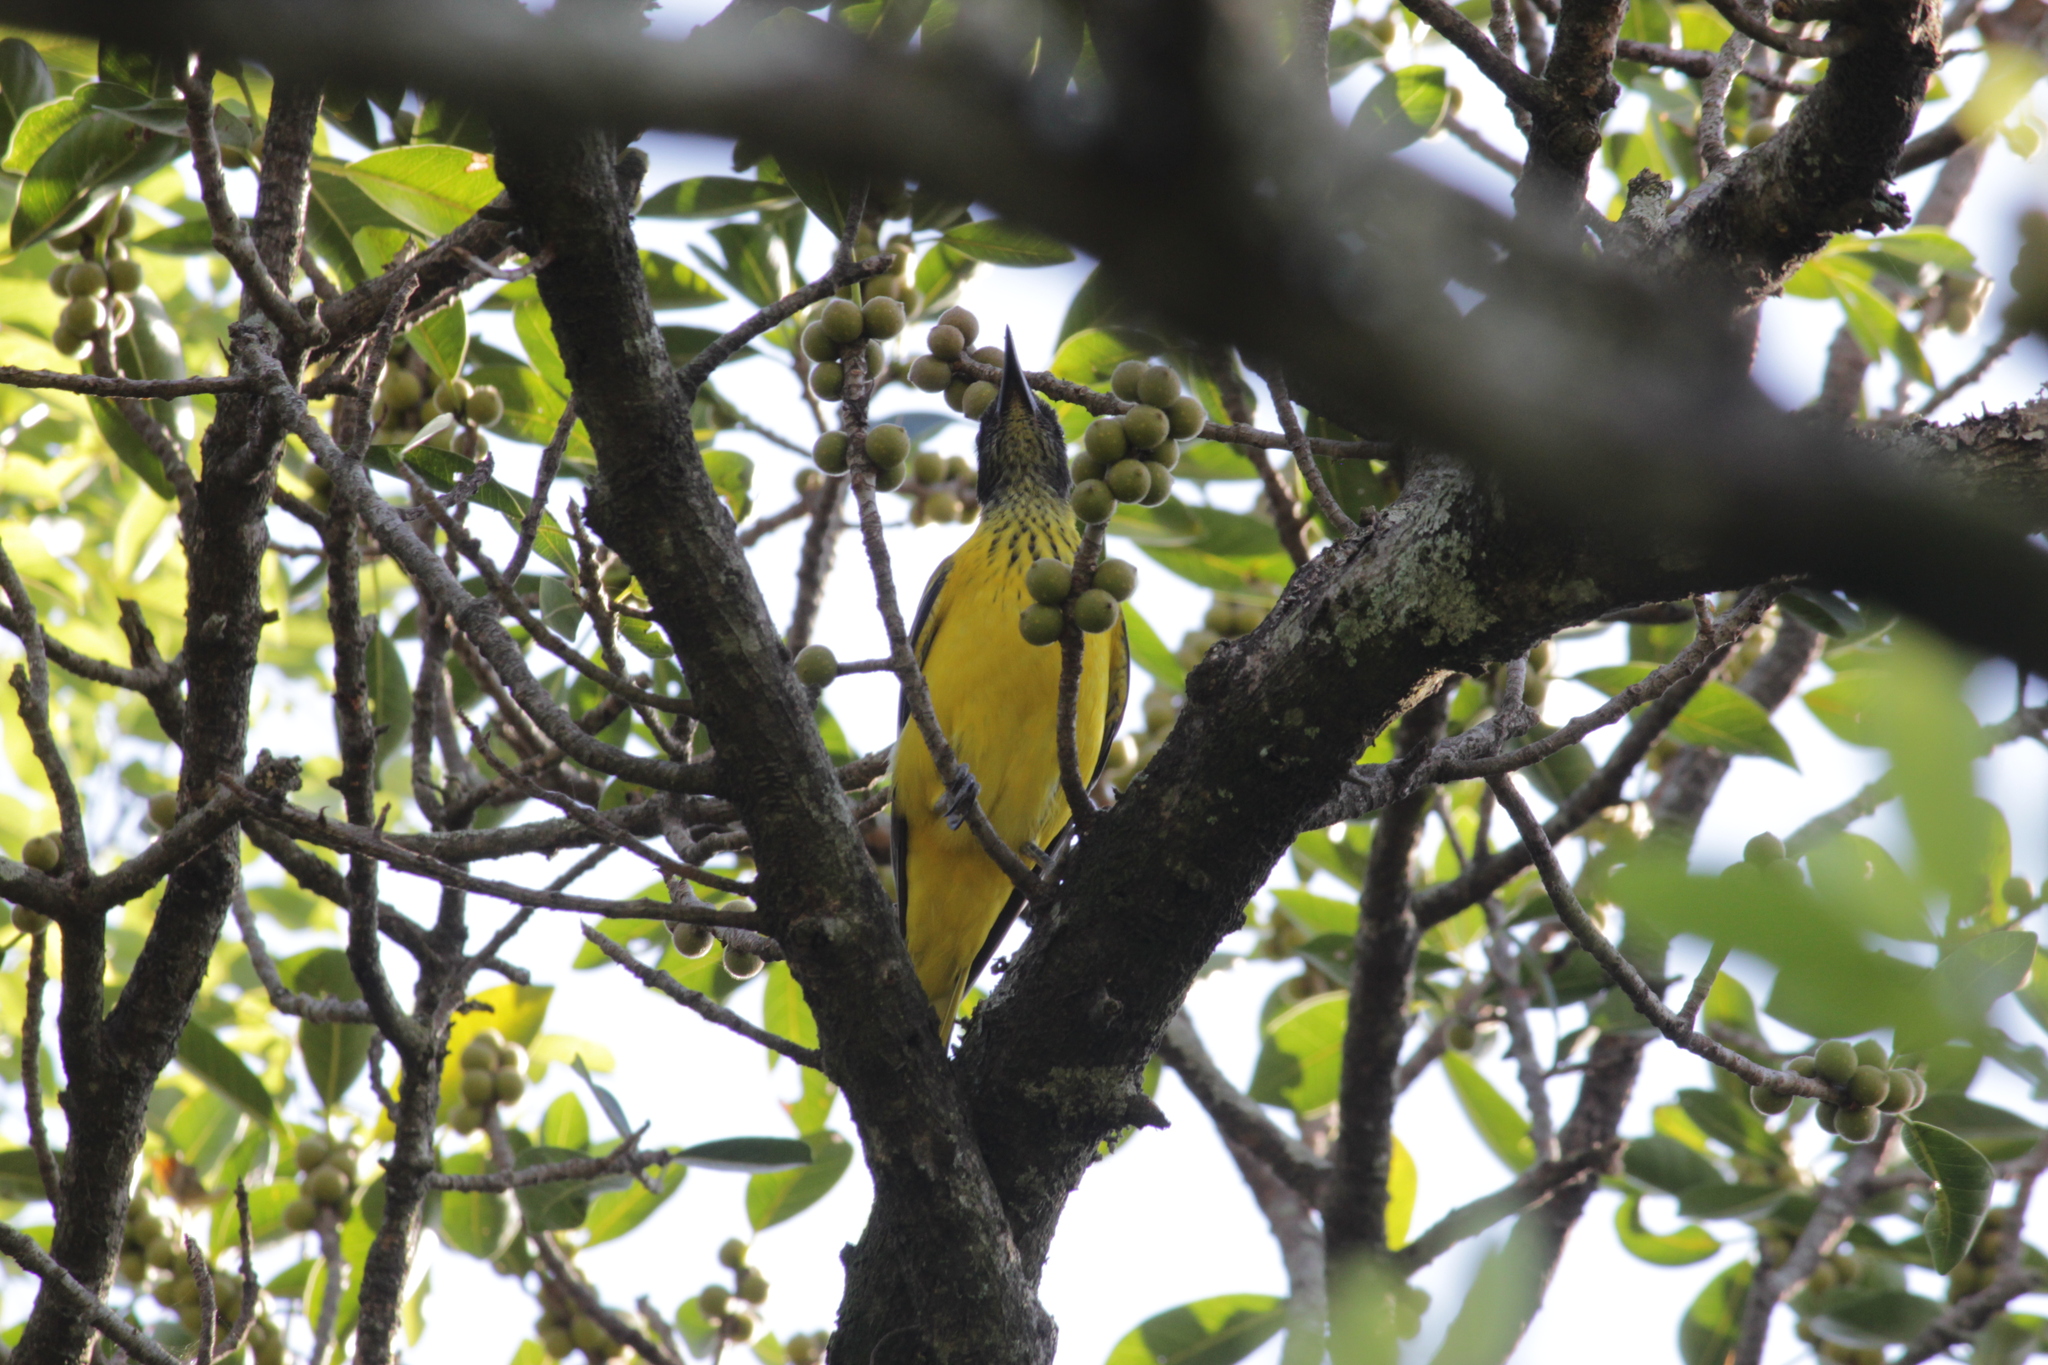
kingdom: Animalia
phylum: Chordata
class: Aves
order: Passeriformes
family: Oriolidae
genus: Oriolus
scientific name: Oriolus larvatus
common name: Black-headed oriole
